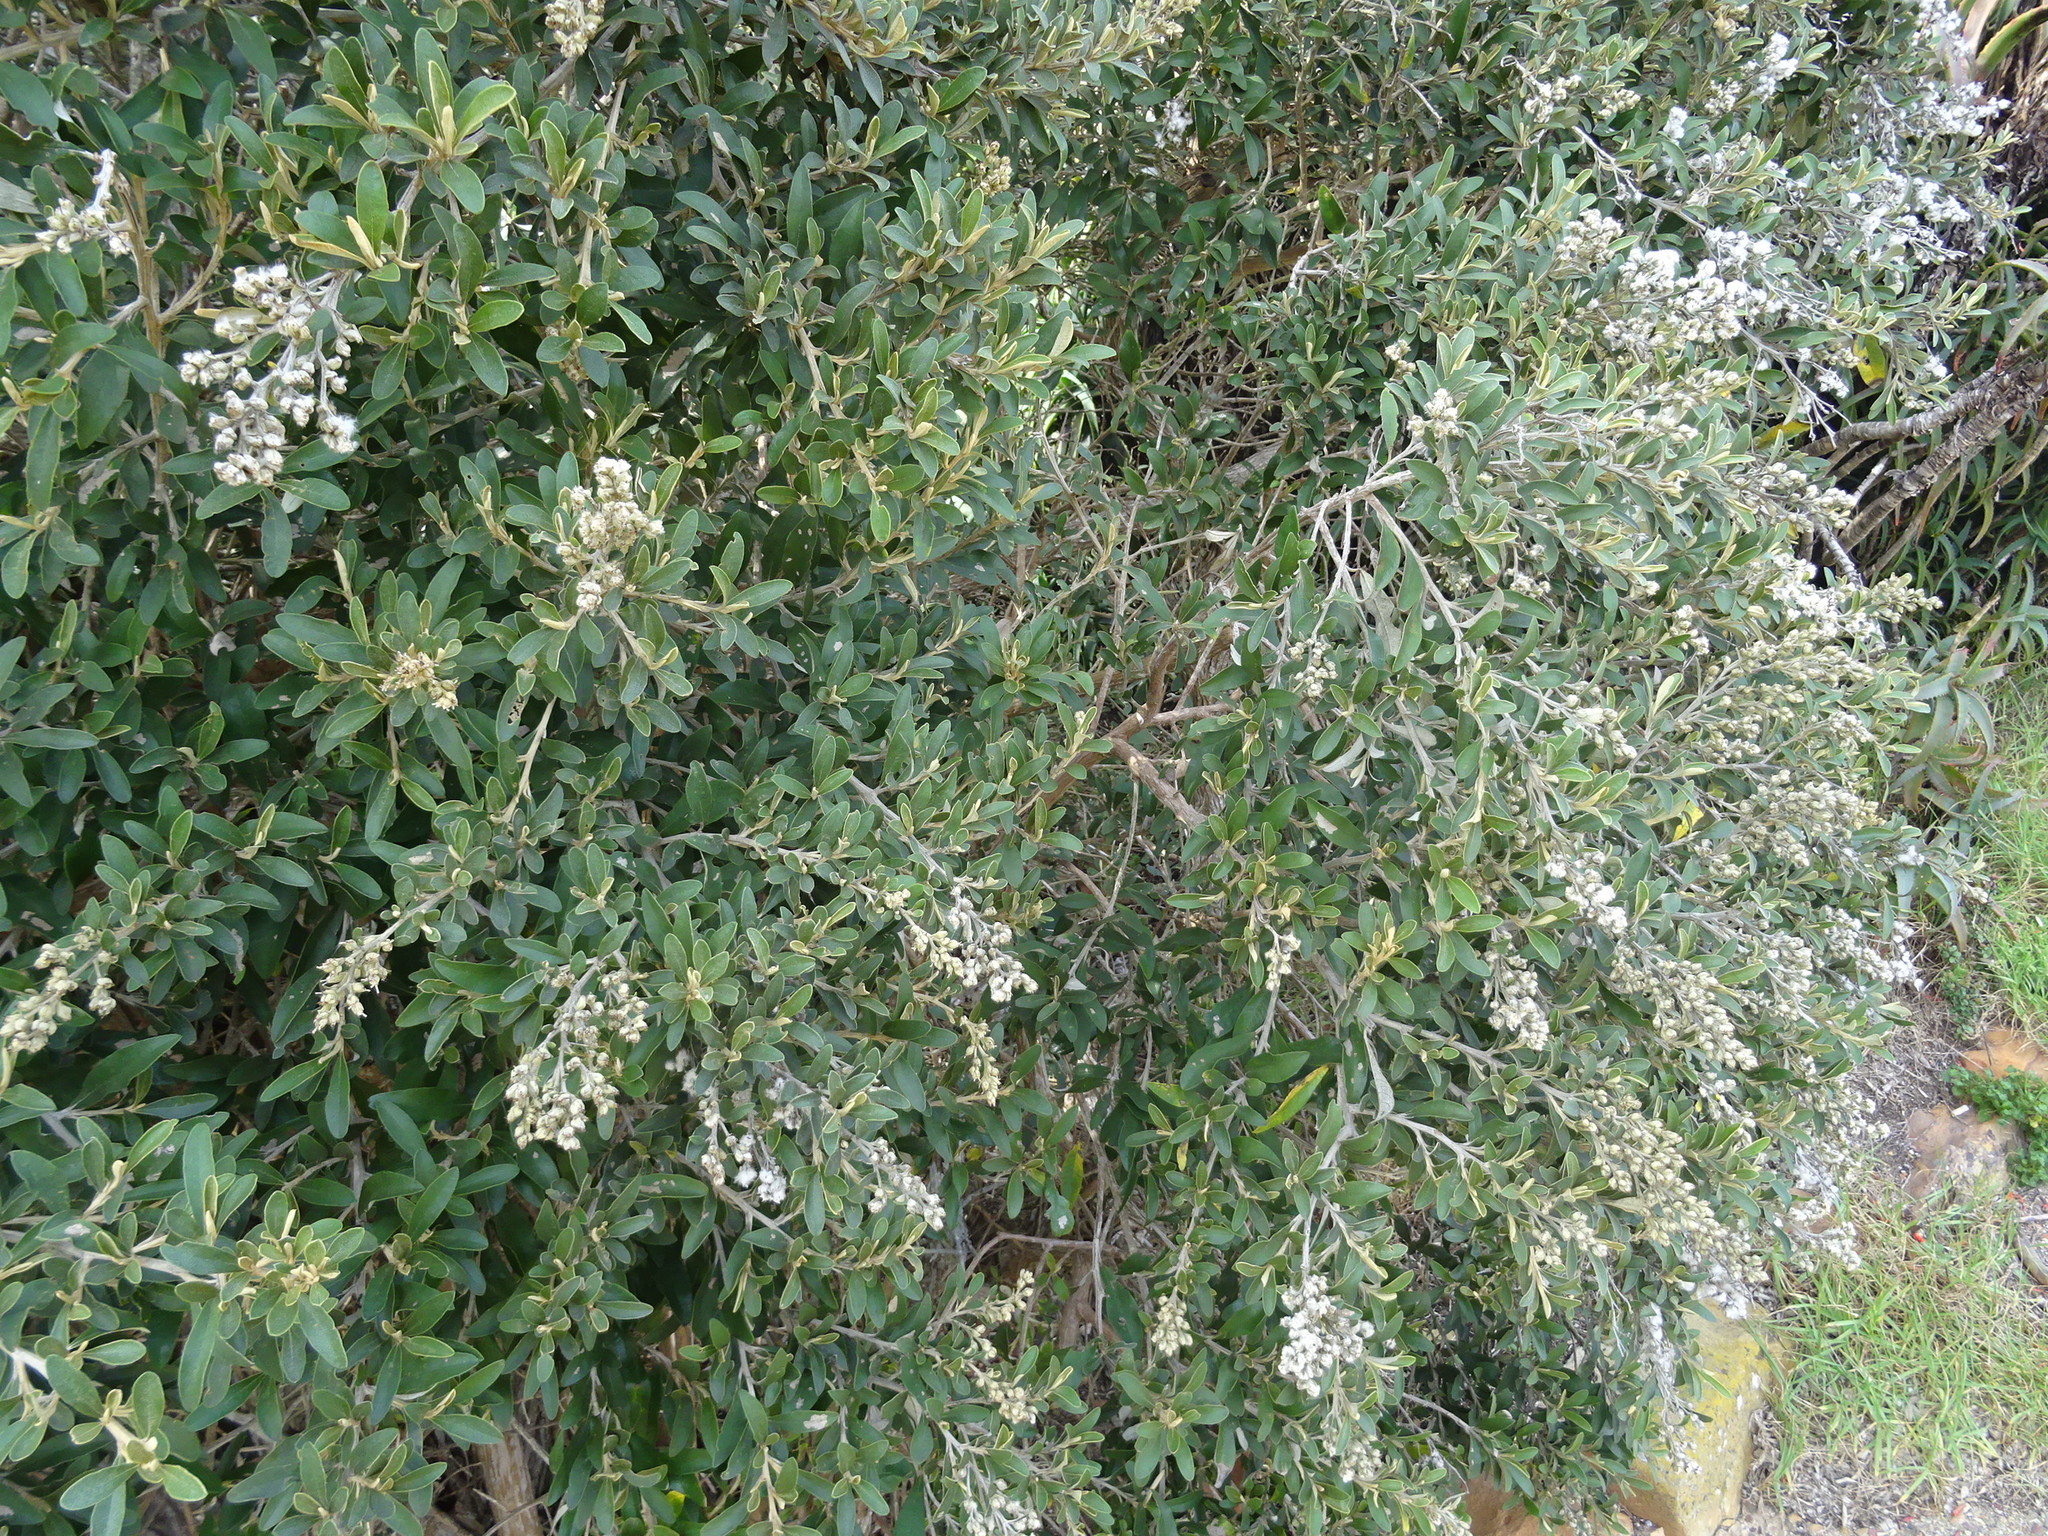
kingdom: Plantae
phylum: Tracheophyta
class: Magnoliopsida
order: Asterales
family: Asteraceae
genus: Tarchonanthus
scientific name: Tarchonanthus littoralis
